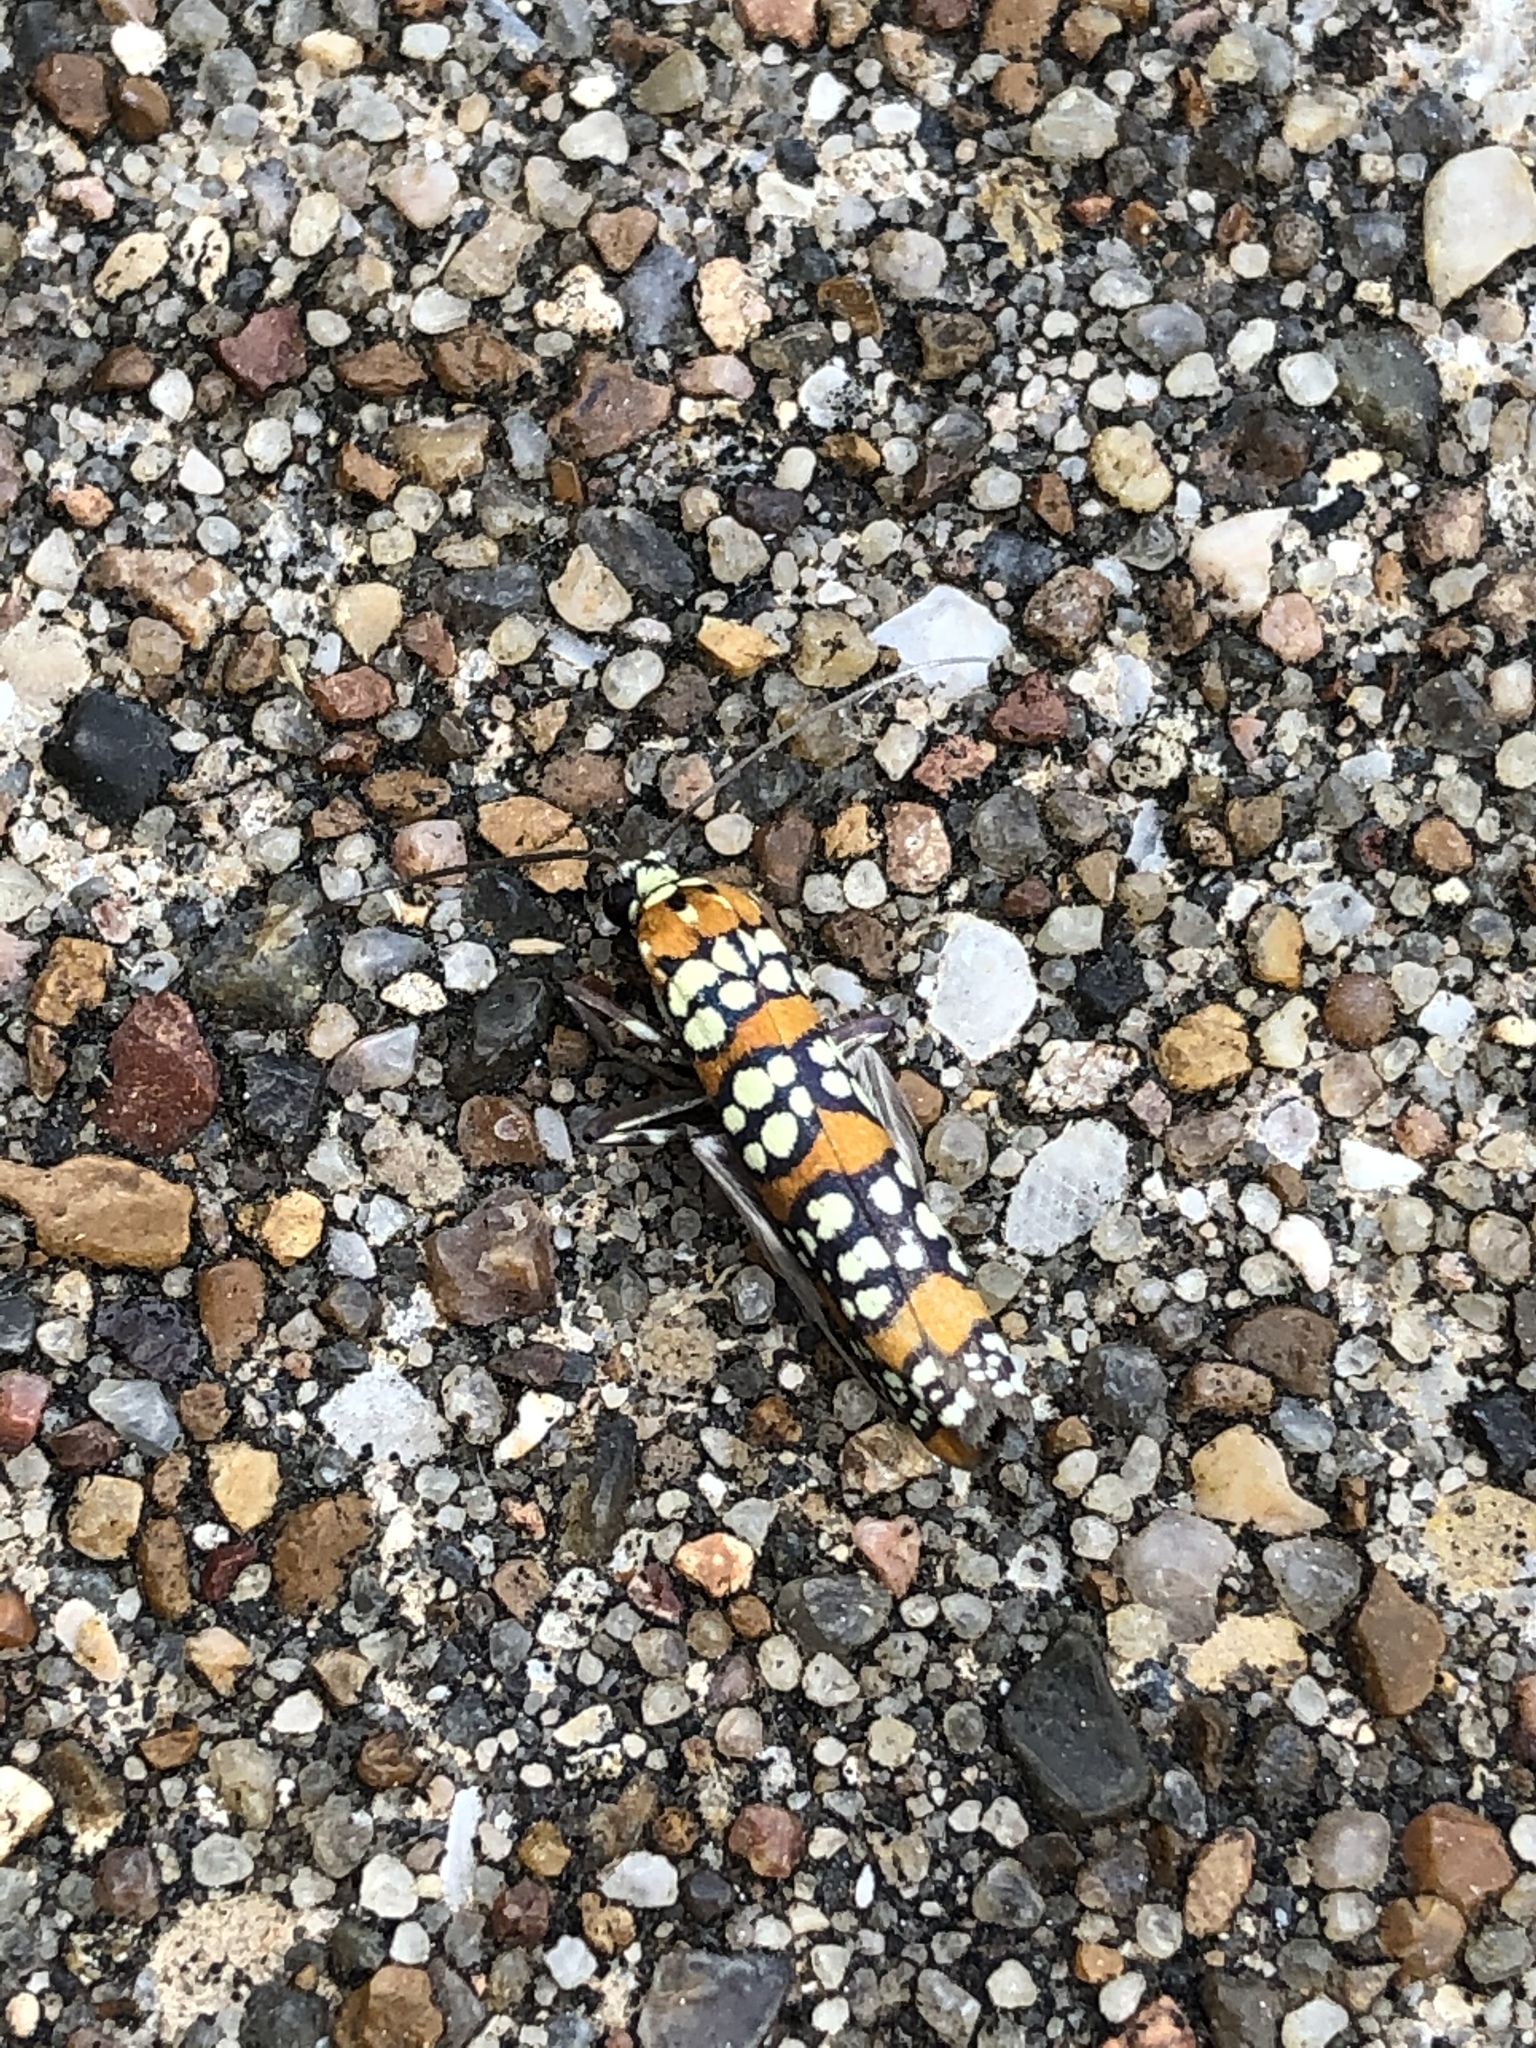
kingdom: Animalia
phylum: Arthropoda
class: Insecta
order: Lepidoptera
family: Attevidae
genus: Atteva
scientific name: Atteva punctella
